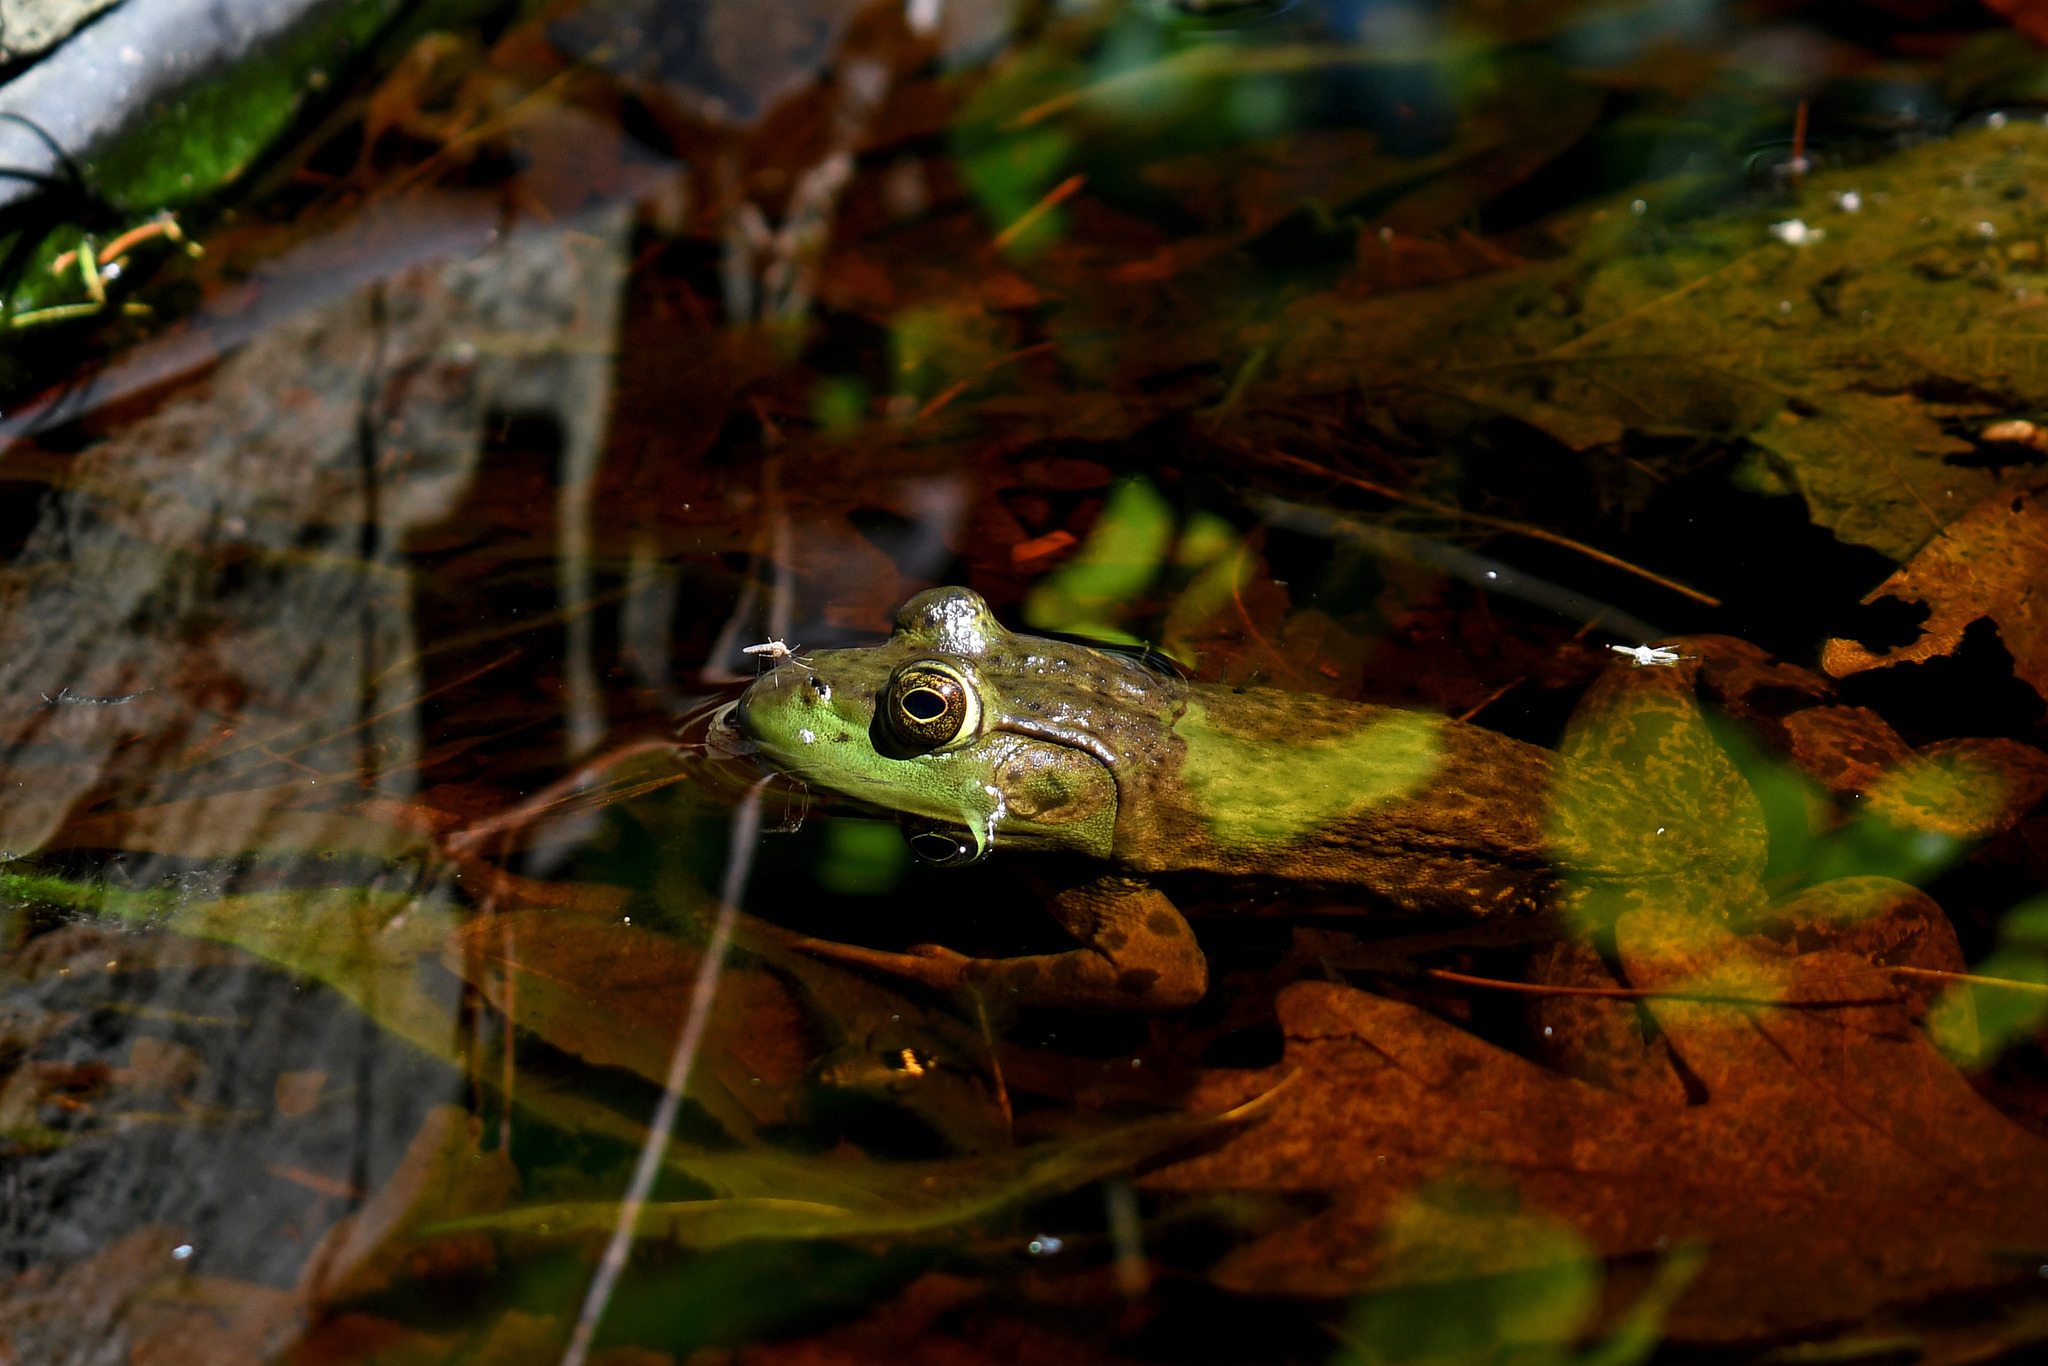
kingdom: Animalia
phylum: Chordata
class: Amphibia
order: Anura
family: Ranidae
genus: Lithobates
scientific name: Lithobates catesbeianus
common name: American bullfrog
